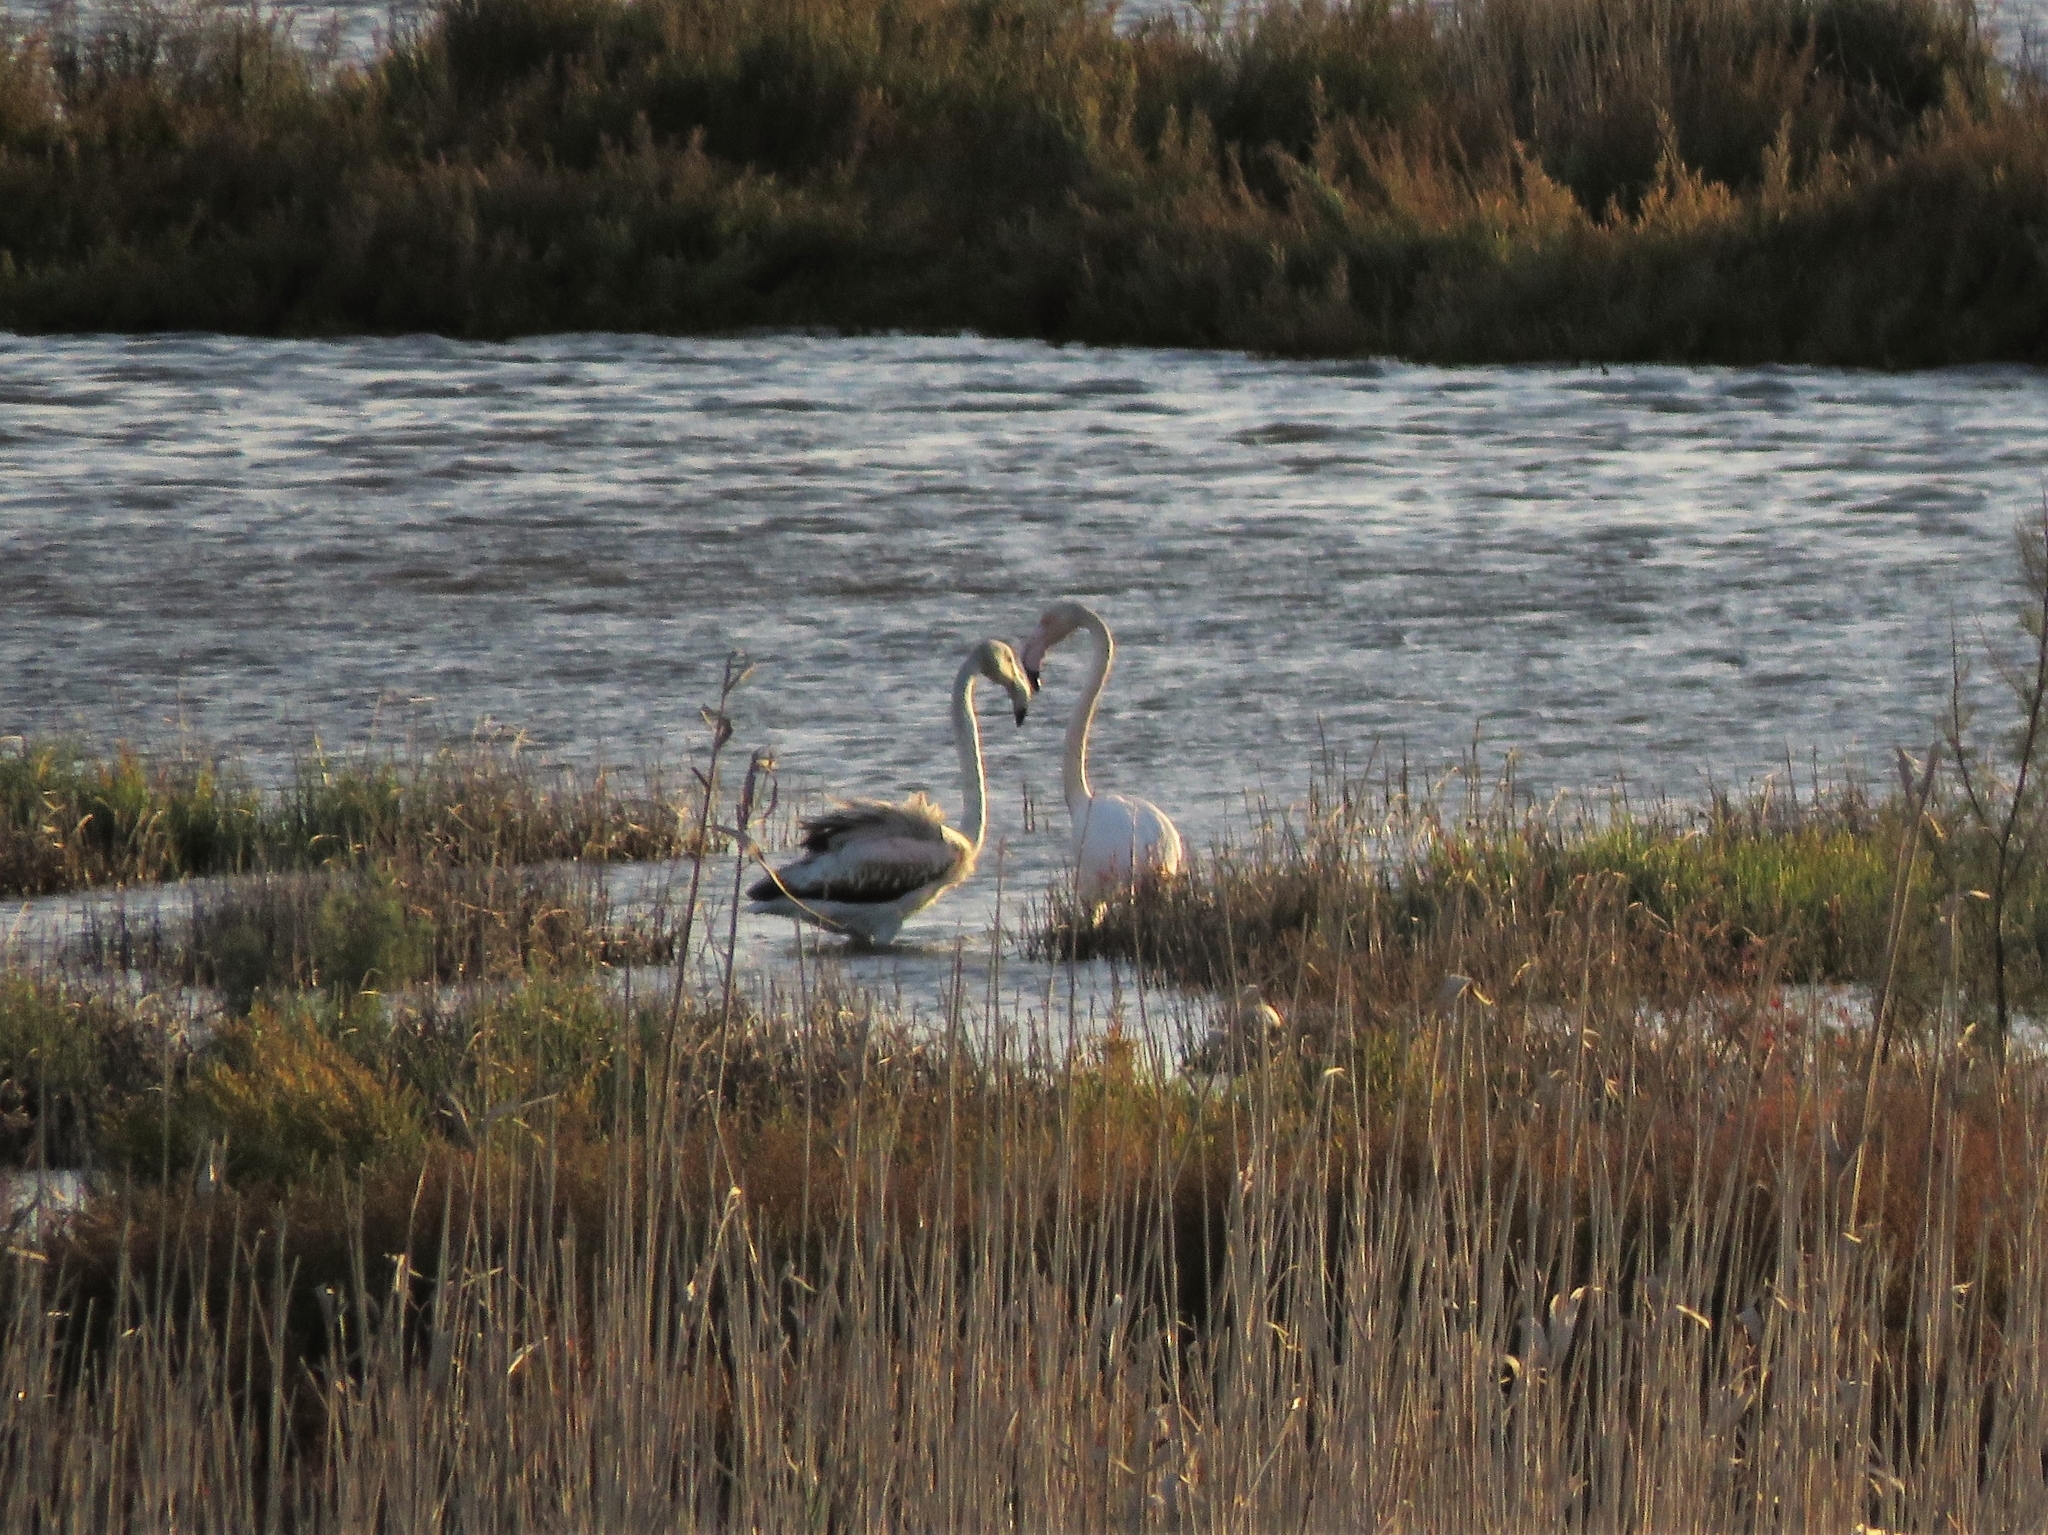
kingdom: Animalia
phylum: Chordata
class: Aves
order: Phoenicopteriformes
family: Phoenicopteridae
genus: Phoenicopterus
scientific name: Phoenicopterus roseus
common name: Greater flamingo
